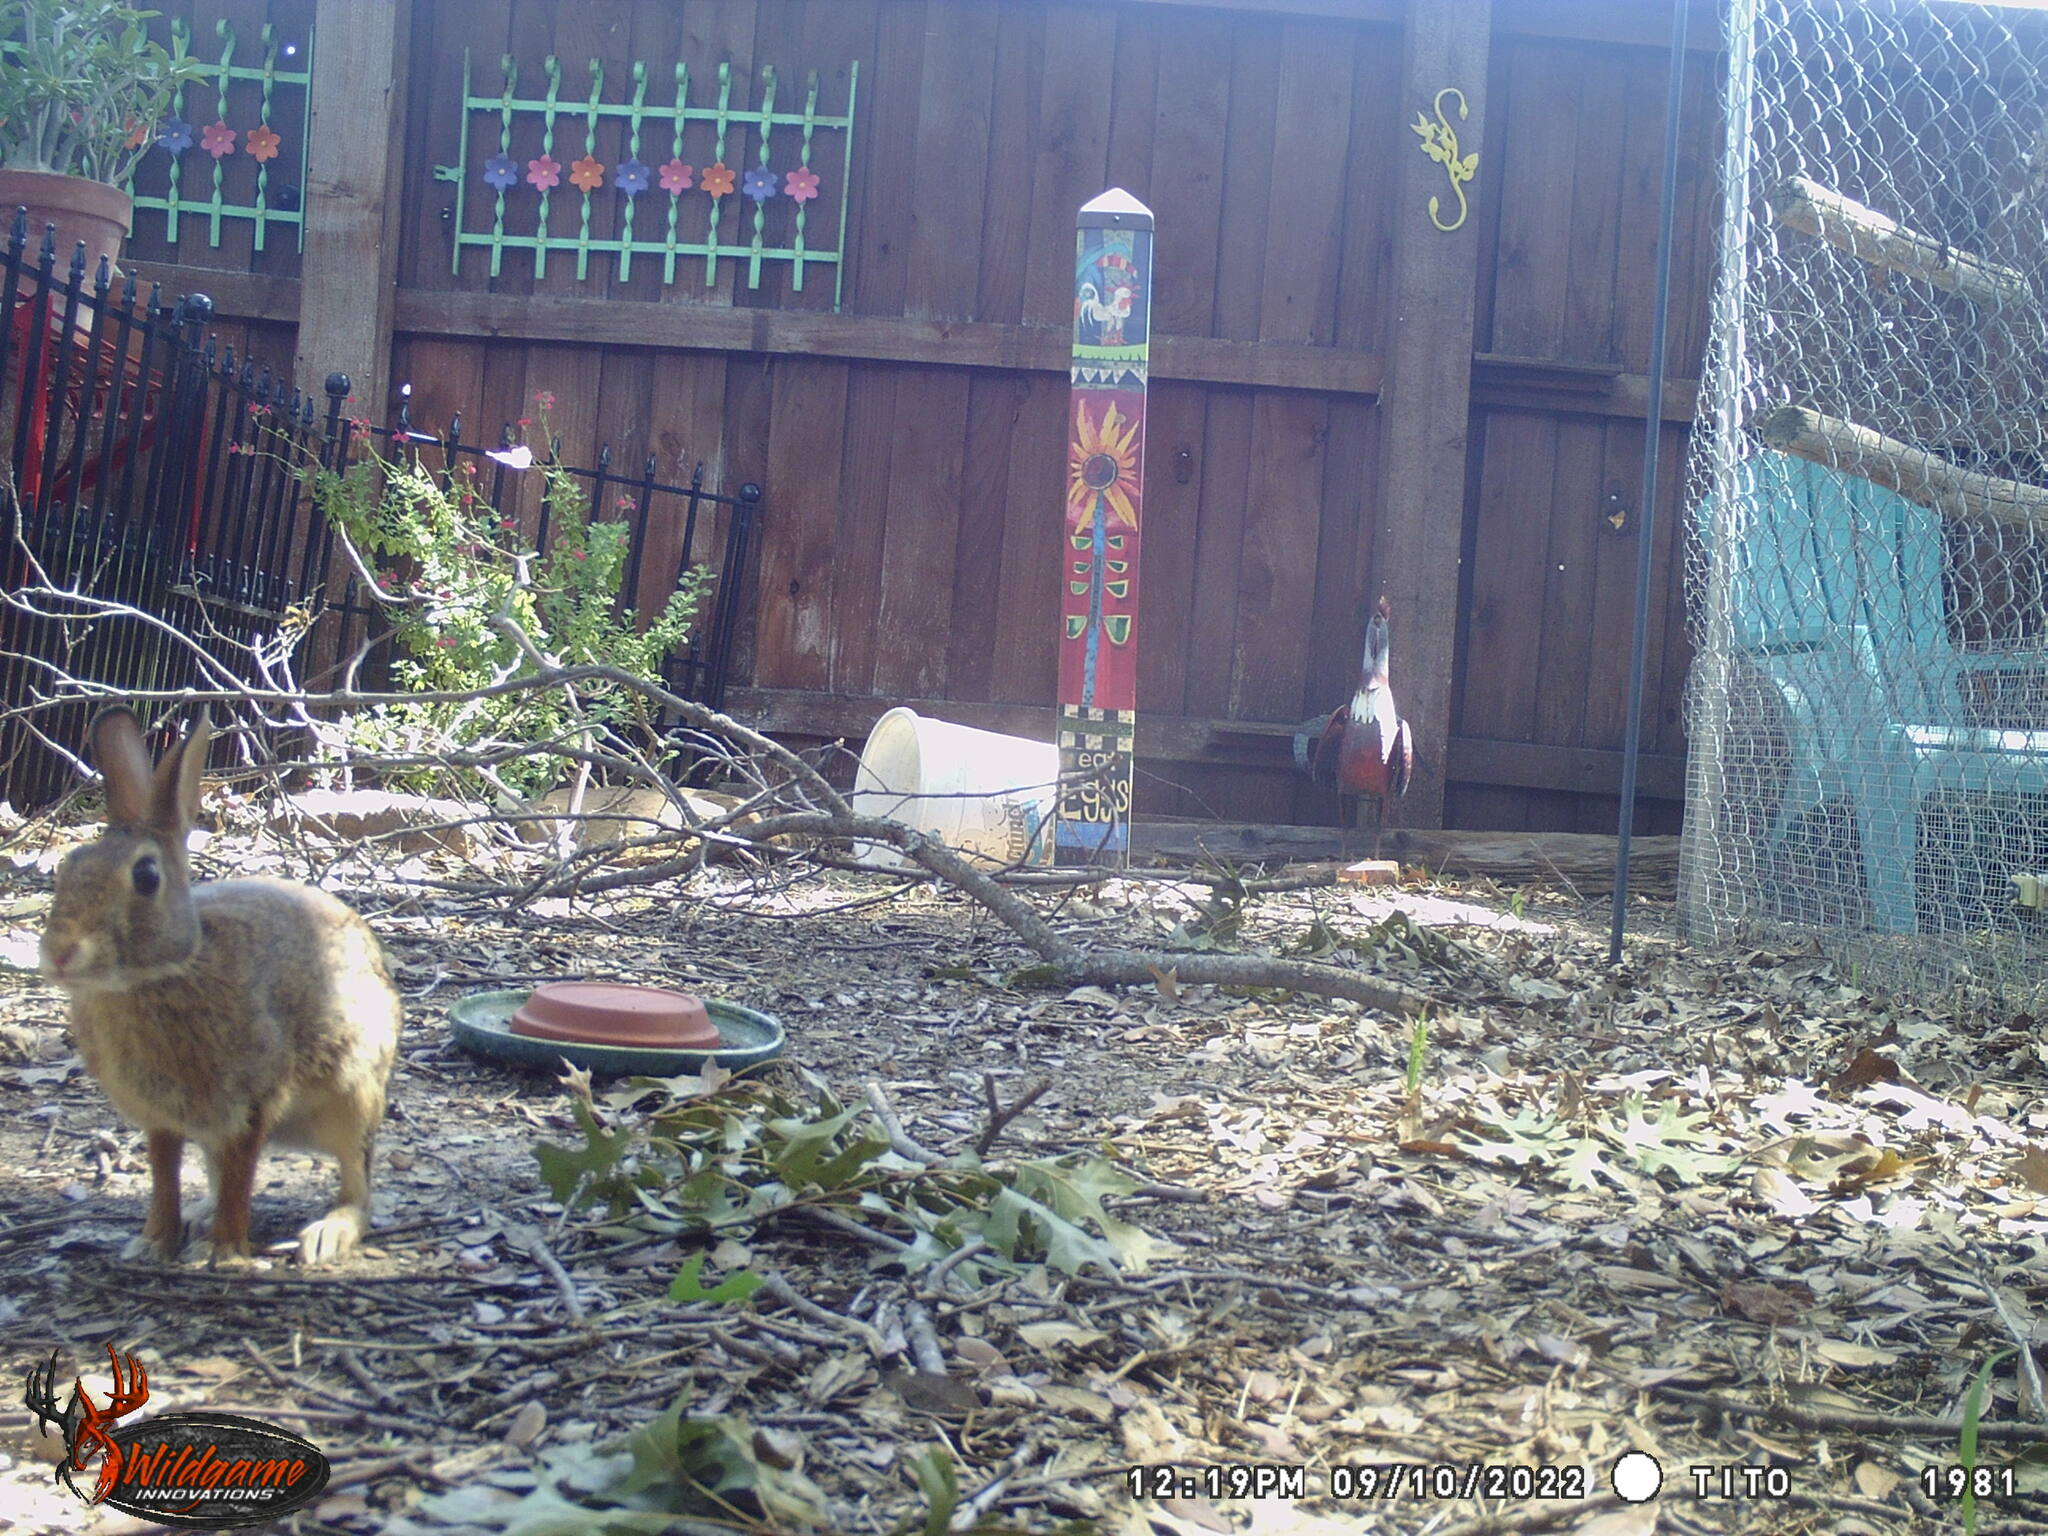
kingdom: Animalia
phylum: Chordata
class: Mammalia
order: Lagomorpha
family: Leporidae
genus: Sylvilagus
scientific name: Sylvilagus floridanus
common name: Eastern cottontail
